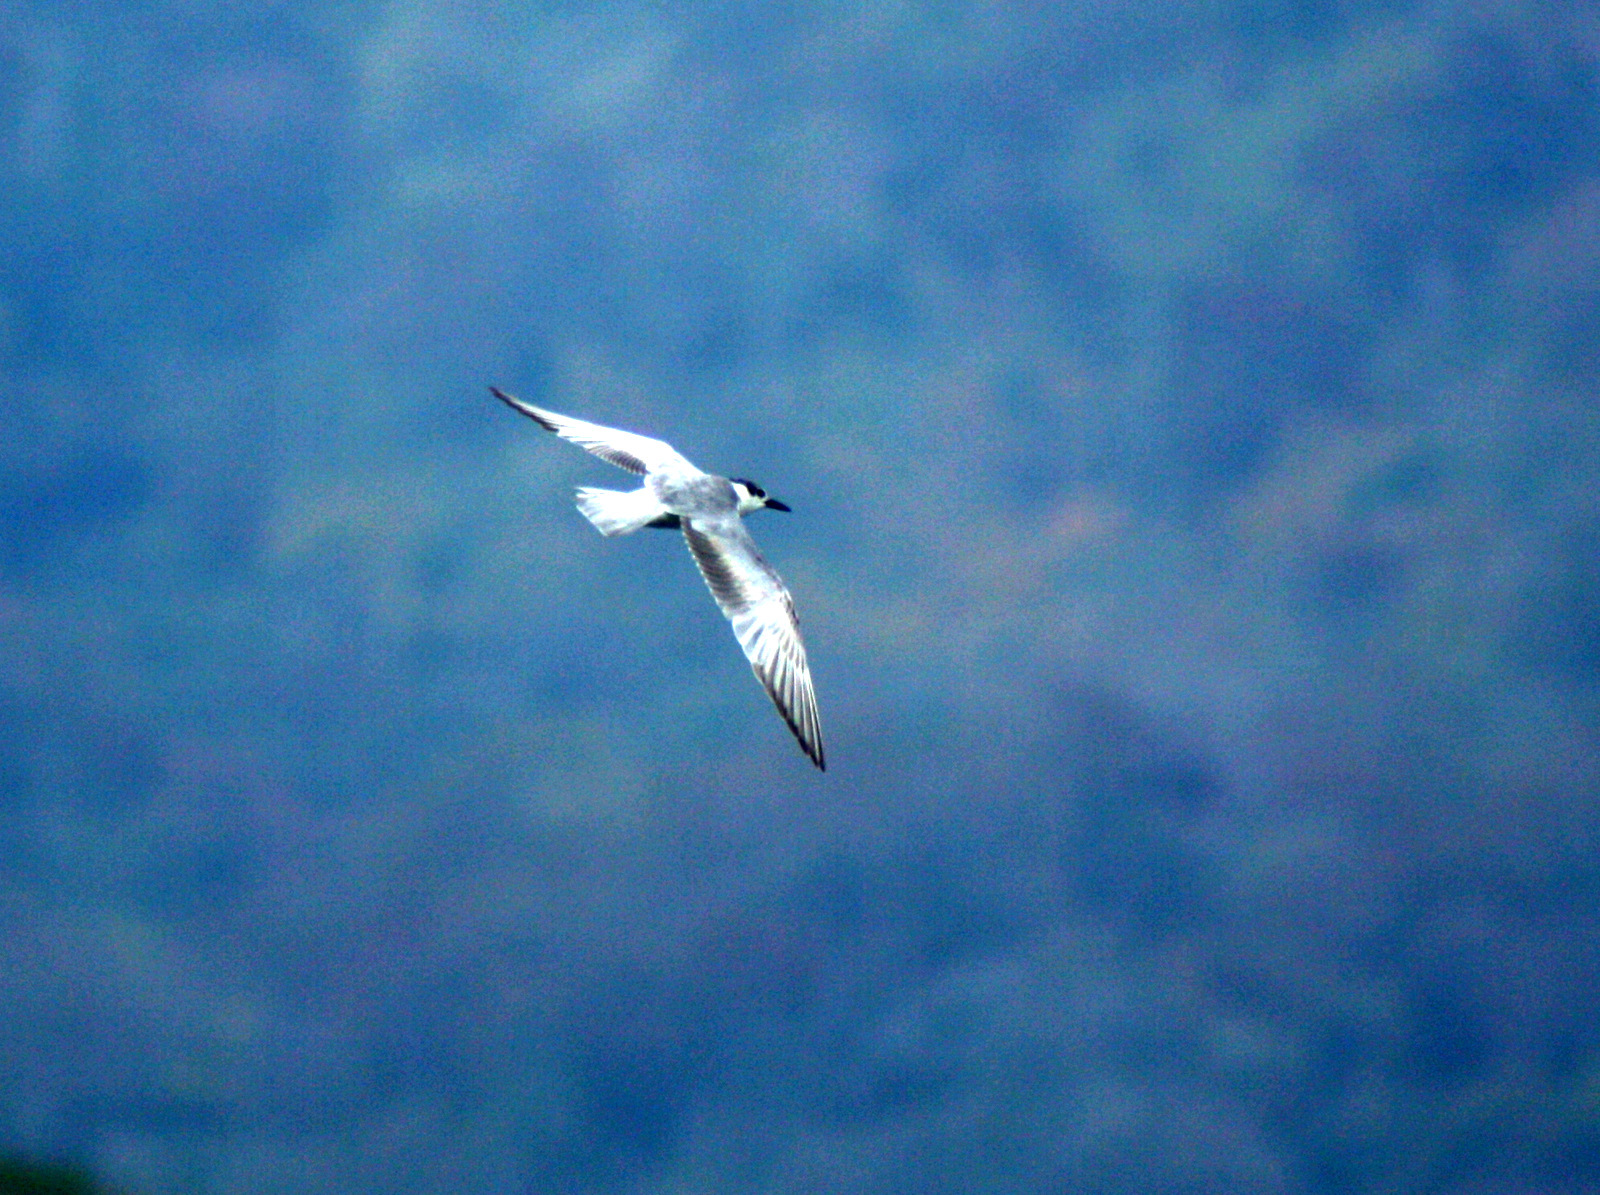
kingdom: Animalia
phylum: Chordata
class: Aves
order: Charadriiformes
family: Laridae
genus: Chlidonias
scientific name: Chlidonias hybrida
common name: Whiskered tern
